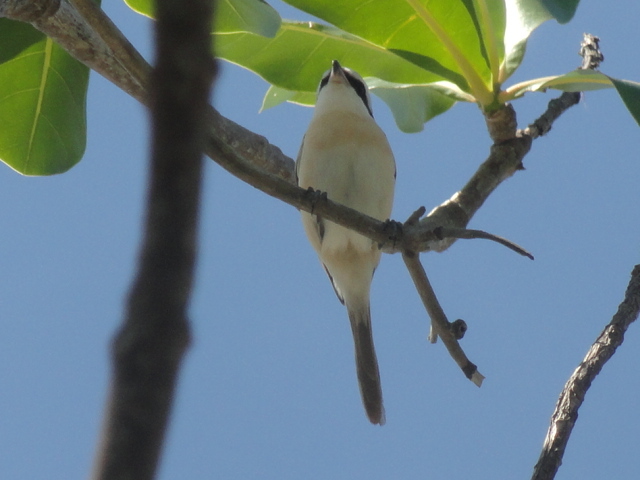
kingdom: Animalia
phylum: Chordata
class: Aves
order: Passeriformes
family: Laniidae
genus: Lanius
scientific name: Lanius cristatus
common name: Brown shrike
